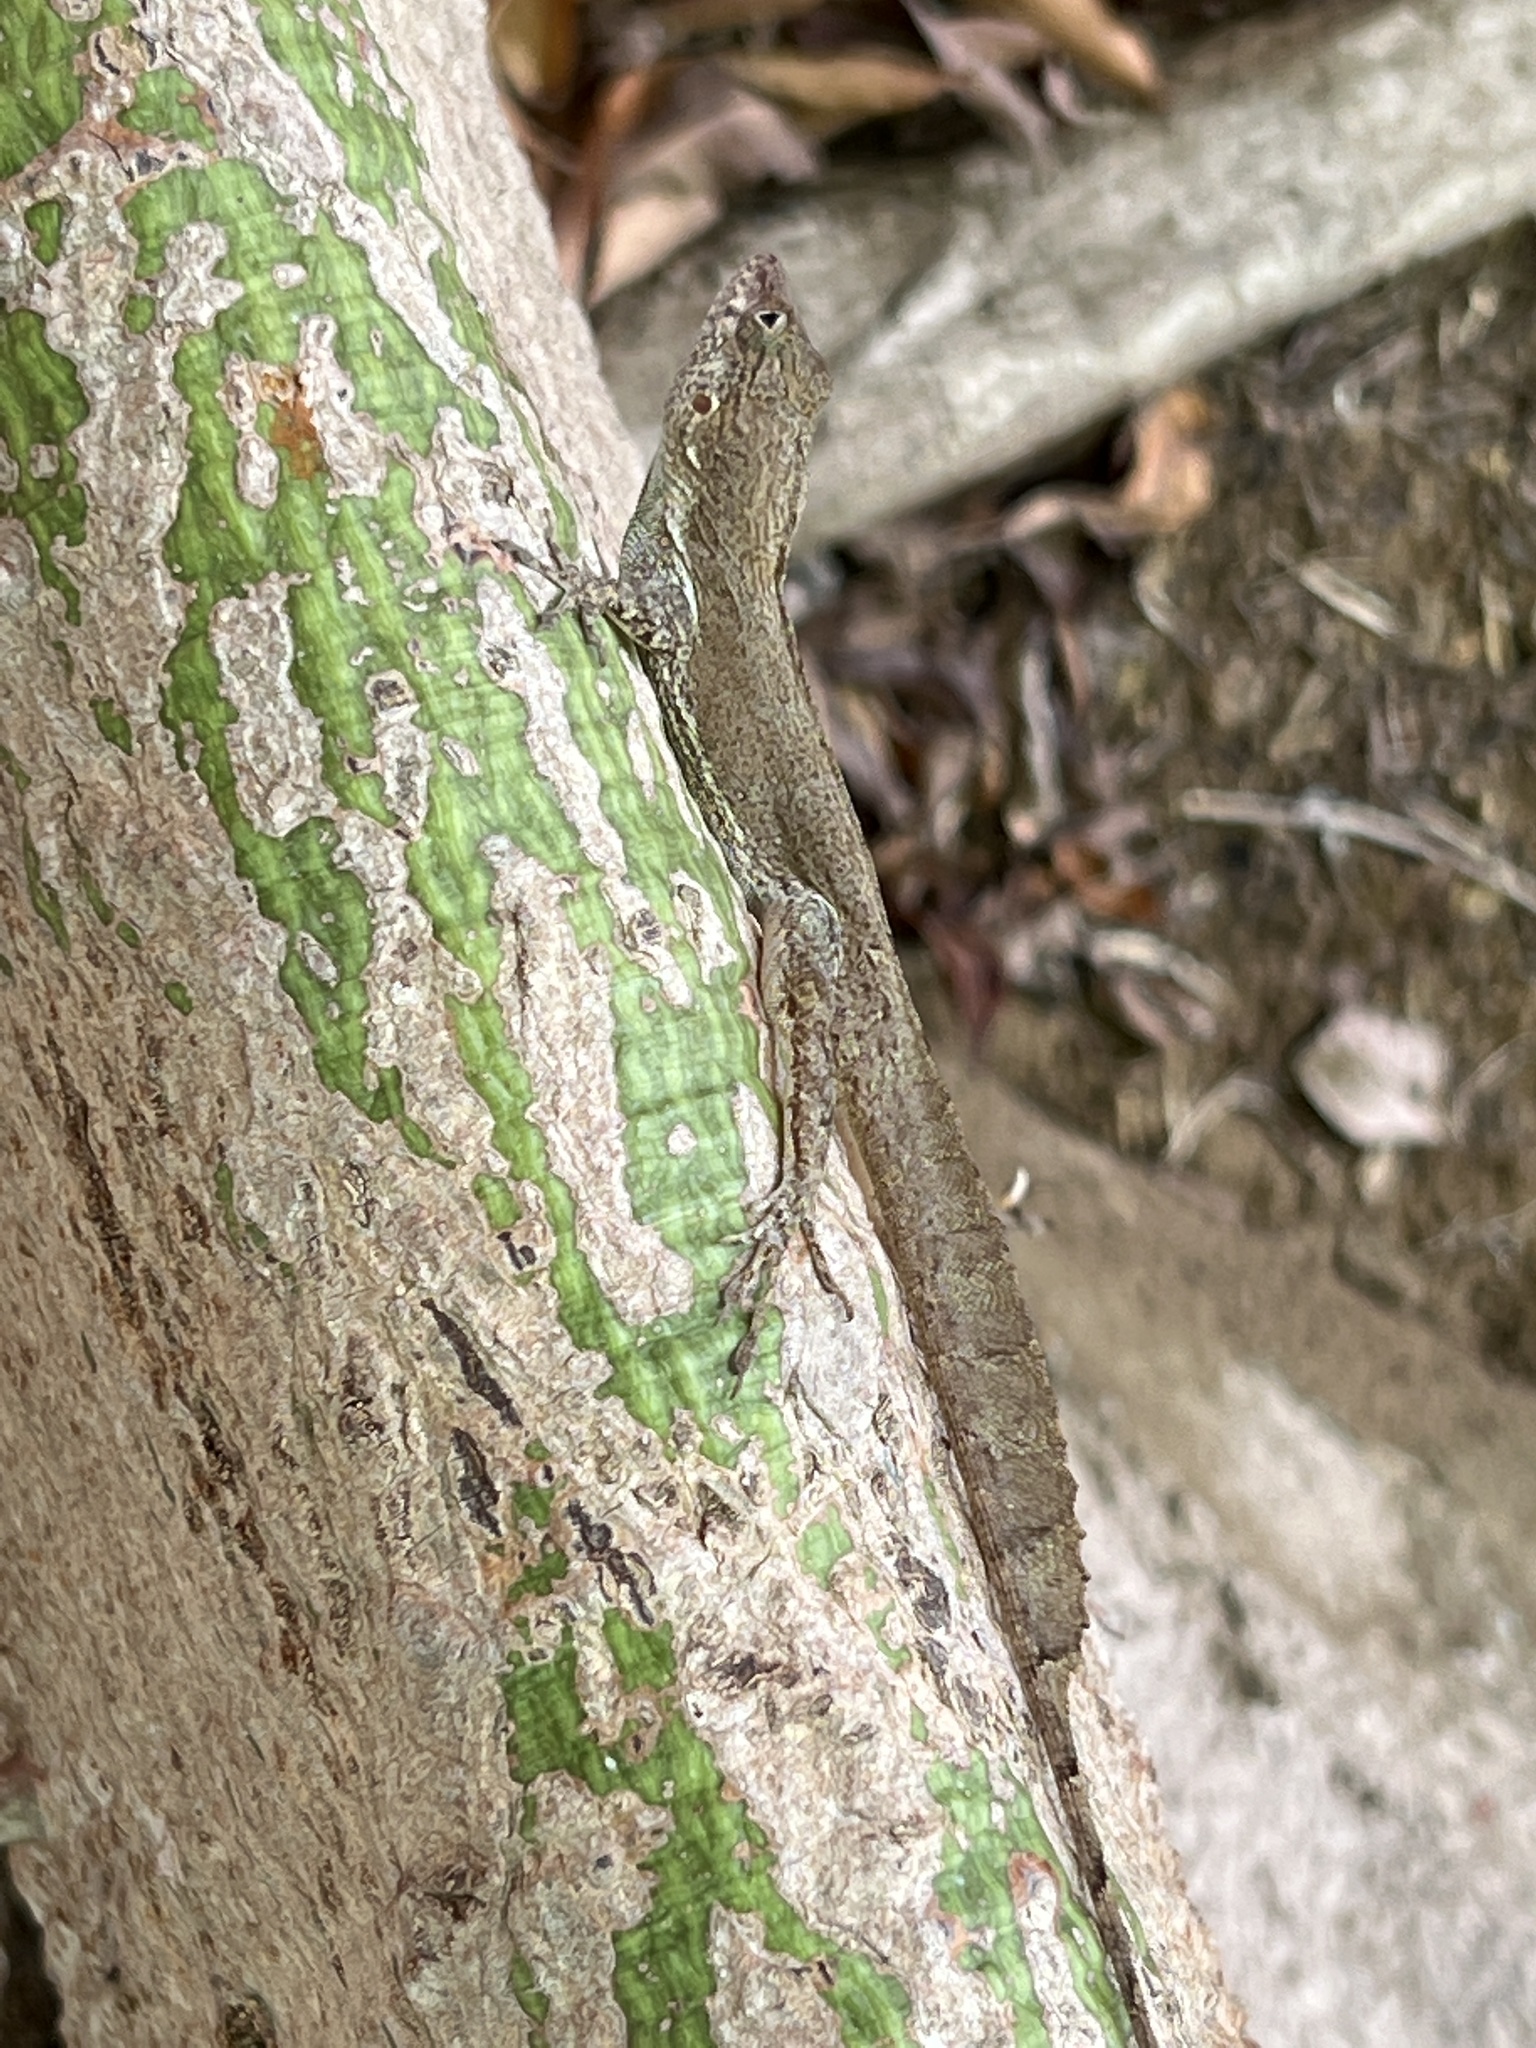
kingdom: Animalia
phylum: Chordata
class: Squamata
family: Dactyloidae
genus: Anolis
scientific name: Anolis cristatellus
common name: Crested anole
